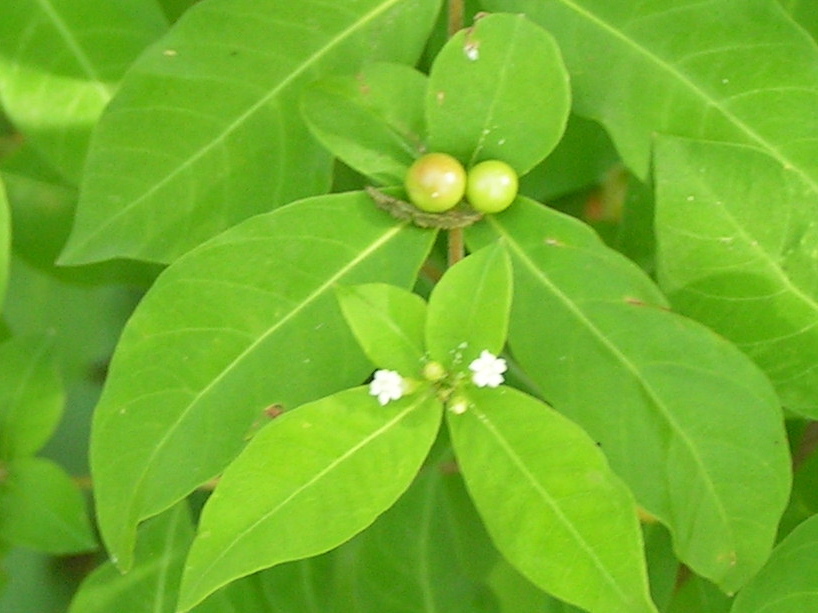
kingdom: Plantae
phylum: Tracheophyta
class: Magnoliopsida
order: Gentianales
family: Apocynaceae
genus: Rauvolfia
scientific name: Rauvolfia tetraphylla
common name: Four-leaf devil-pepper
